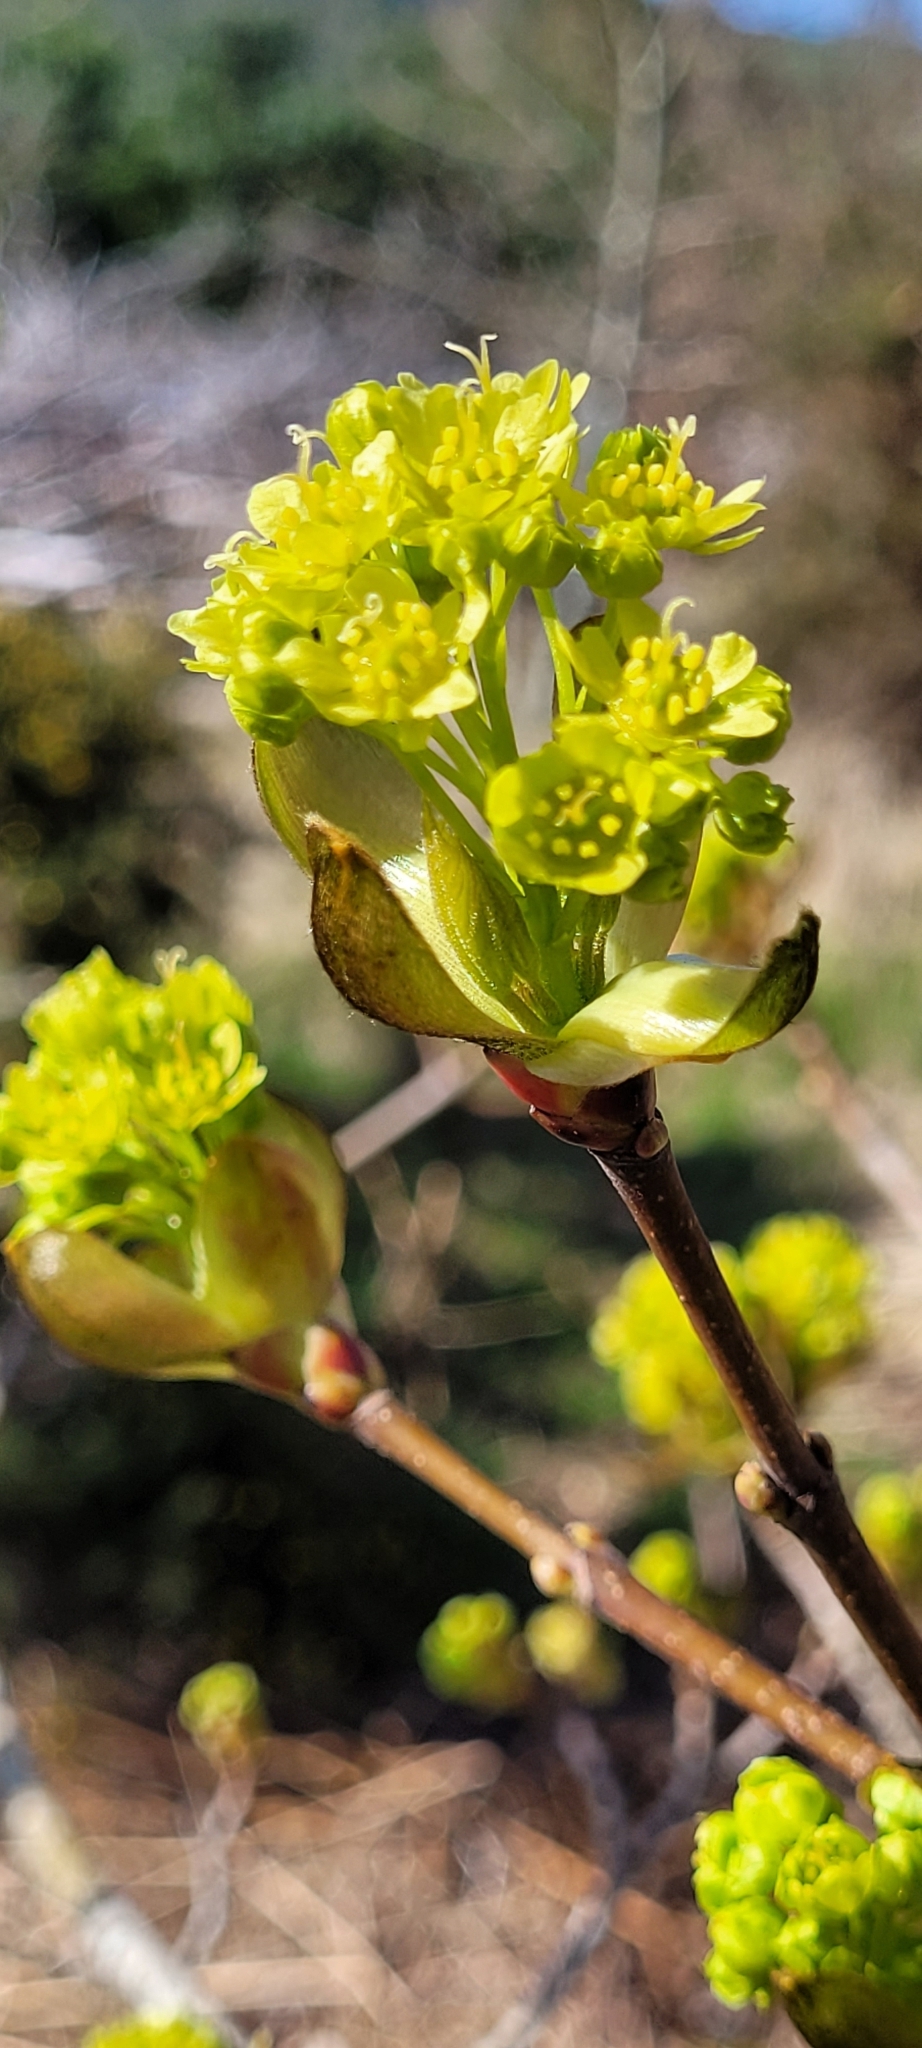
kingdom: Plantae
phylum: Tracheophyta
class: Magnoliopsida
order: Sapindales
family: Sapindaceae
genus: Acer
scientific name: Acer platanoides
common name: Norway maple
